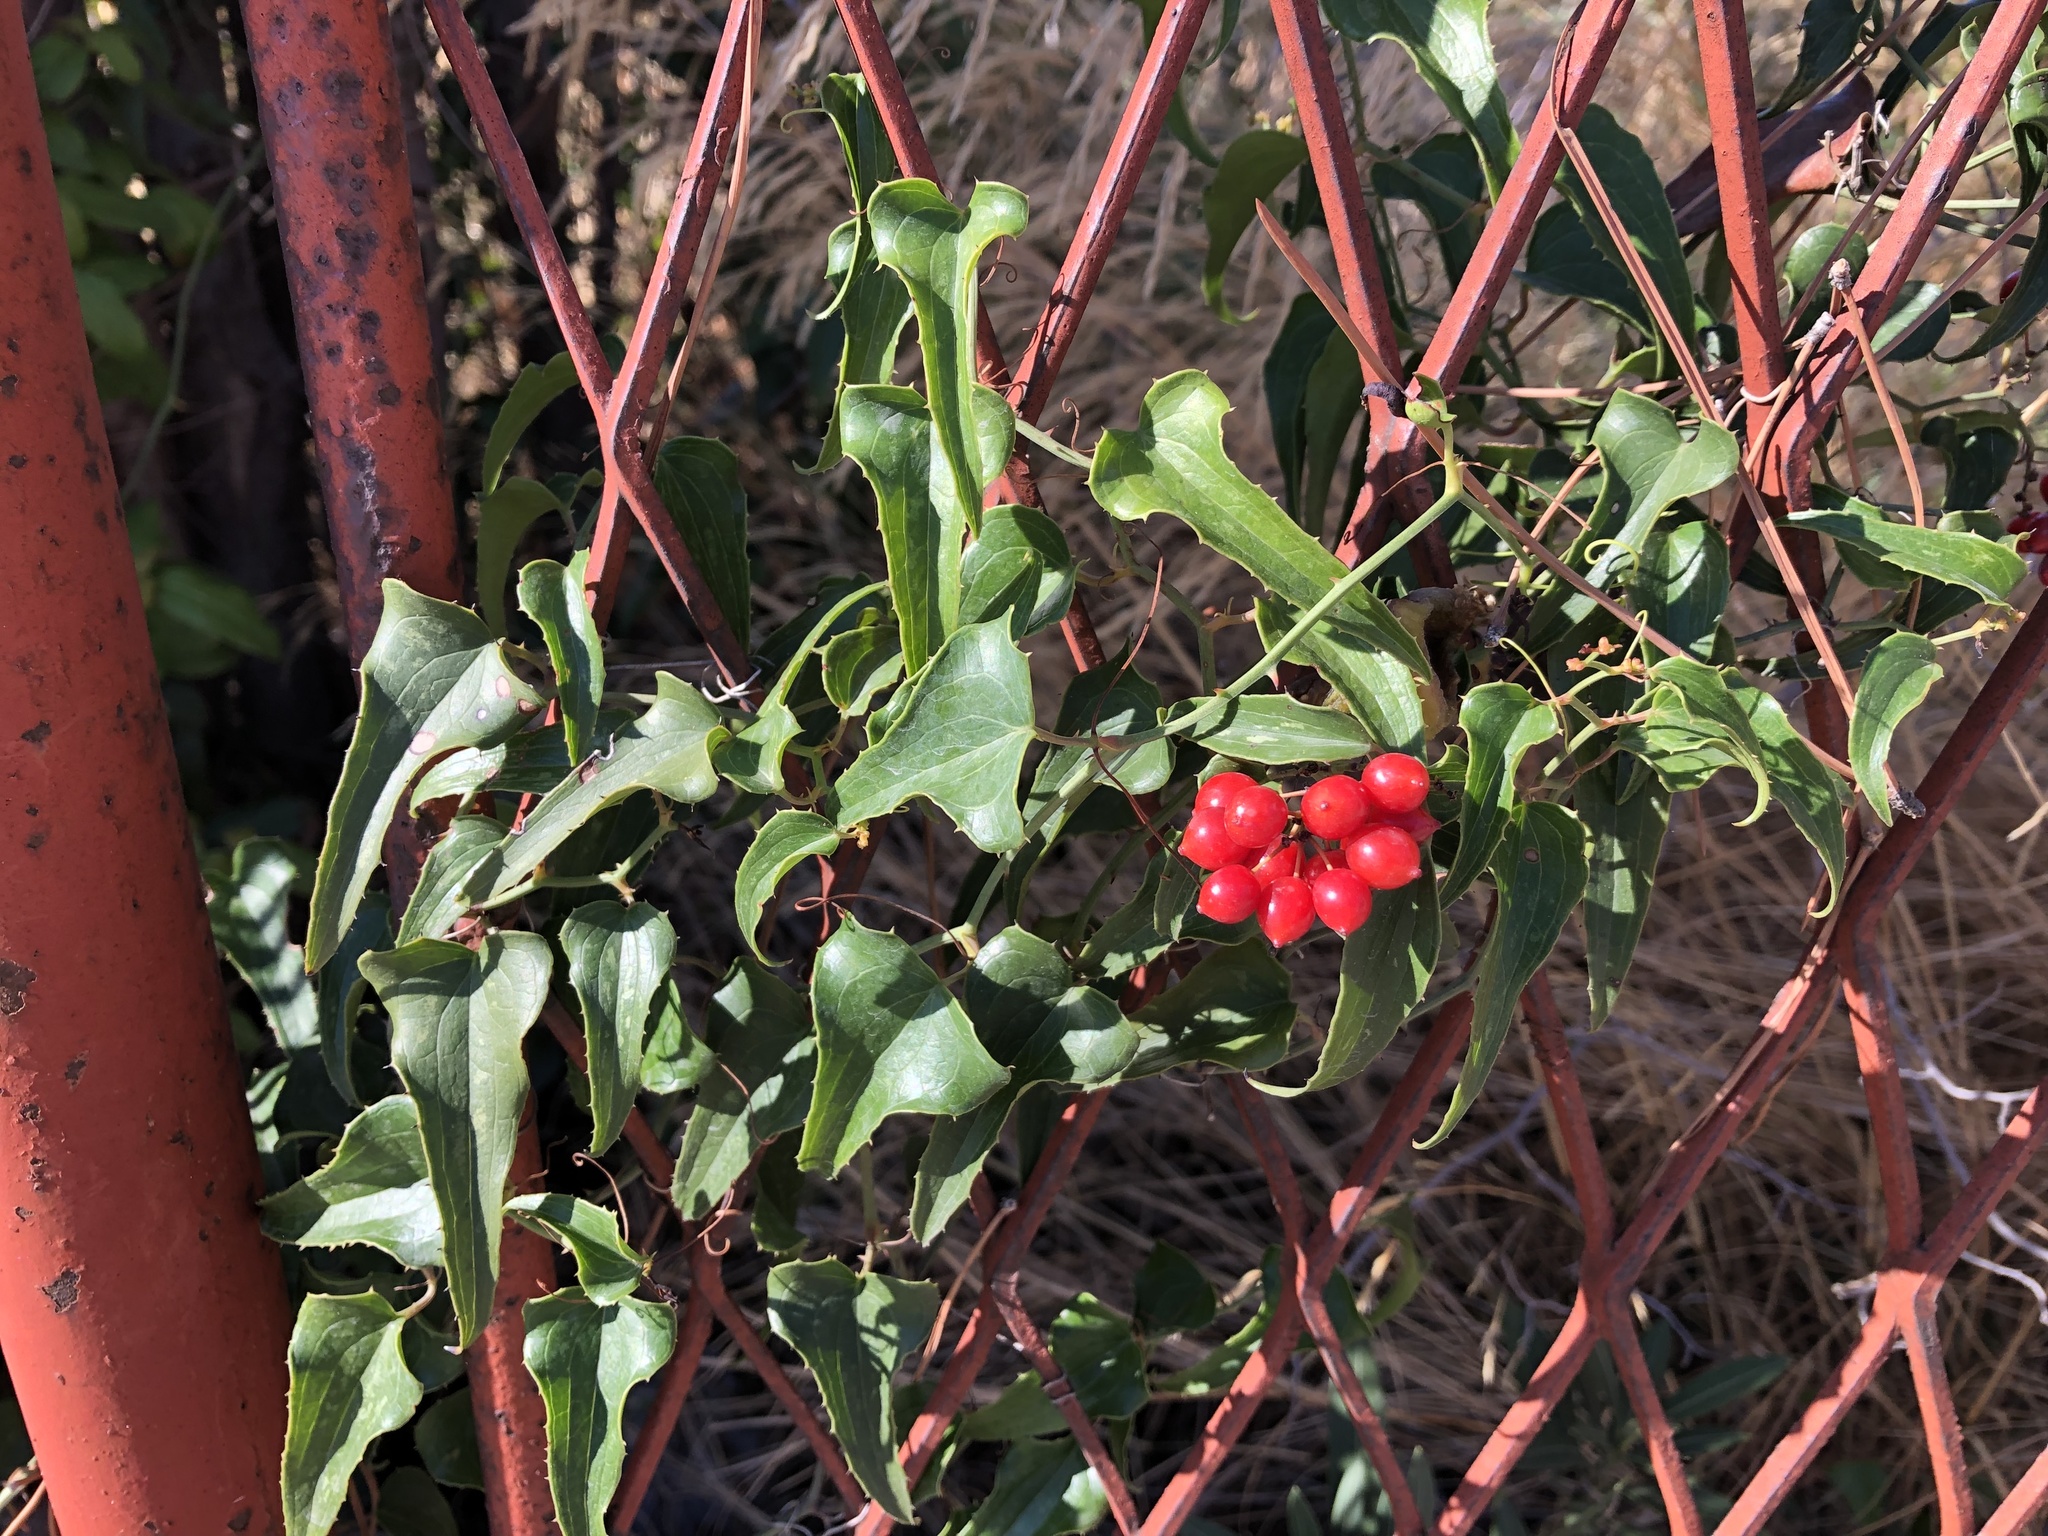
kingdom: Plantae
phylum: Tracheophyta
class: Liliopsida
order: Liliales
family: Smilacaceae
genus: Smilax
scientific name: Smilax aspera
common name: Common smilax
